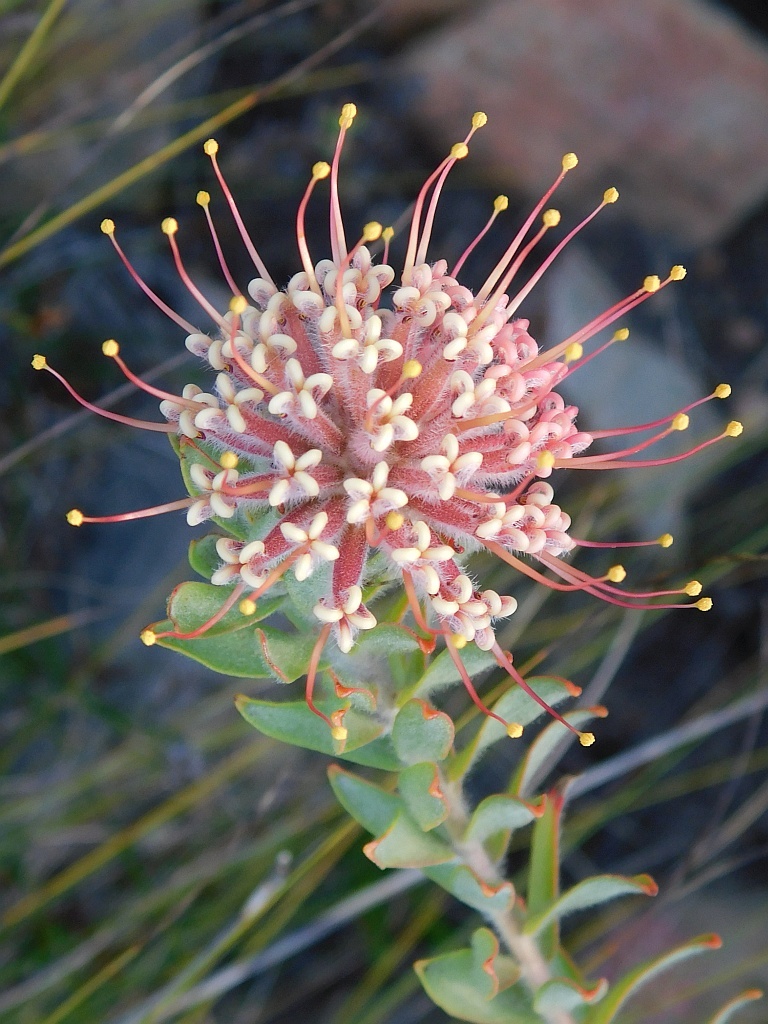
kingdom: Plantae
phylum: Tracheophyta
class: Magnoliopsida
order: Proteales
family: Proteaceae
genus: Leucospermum
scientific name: Leucospermum calligerum
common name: Arid pincushion
